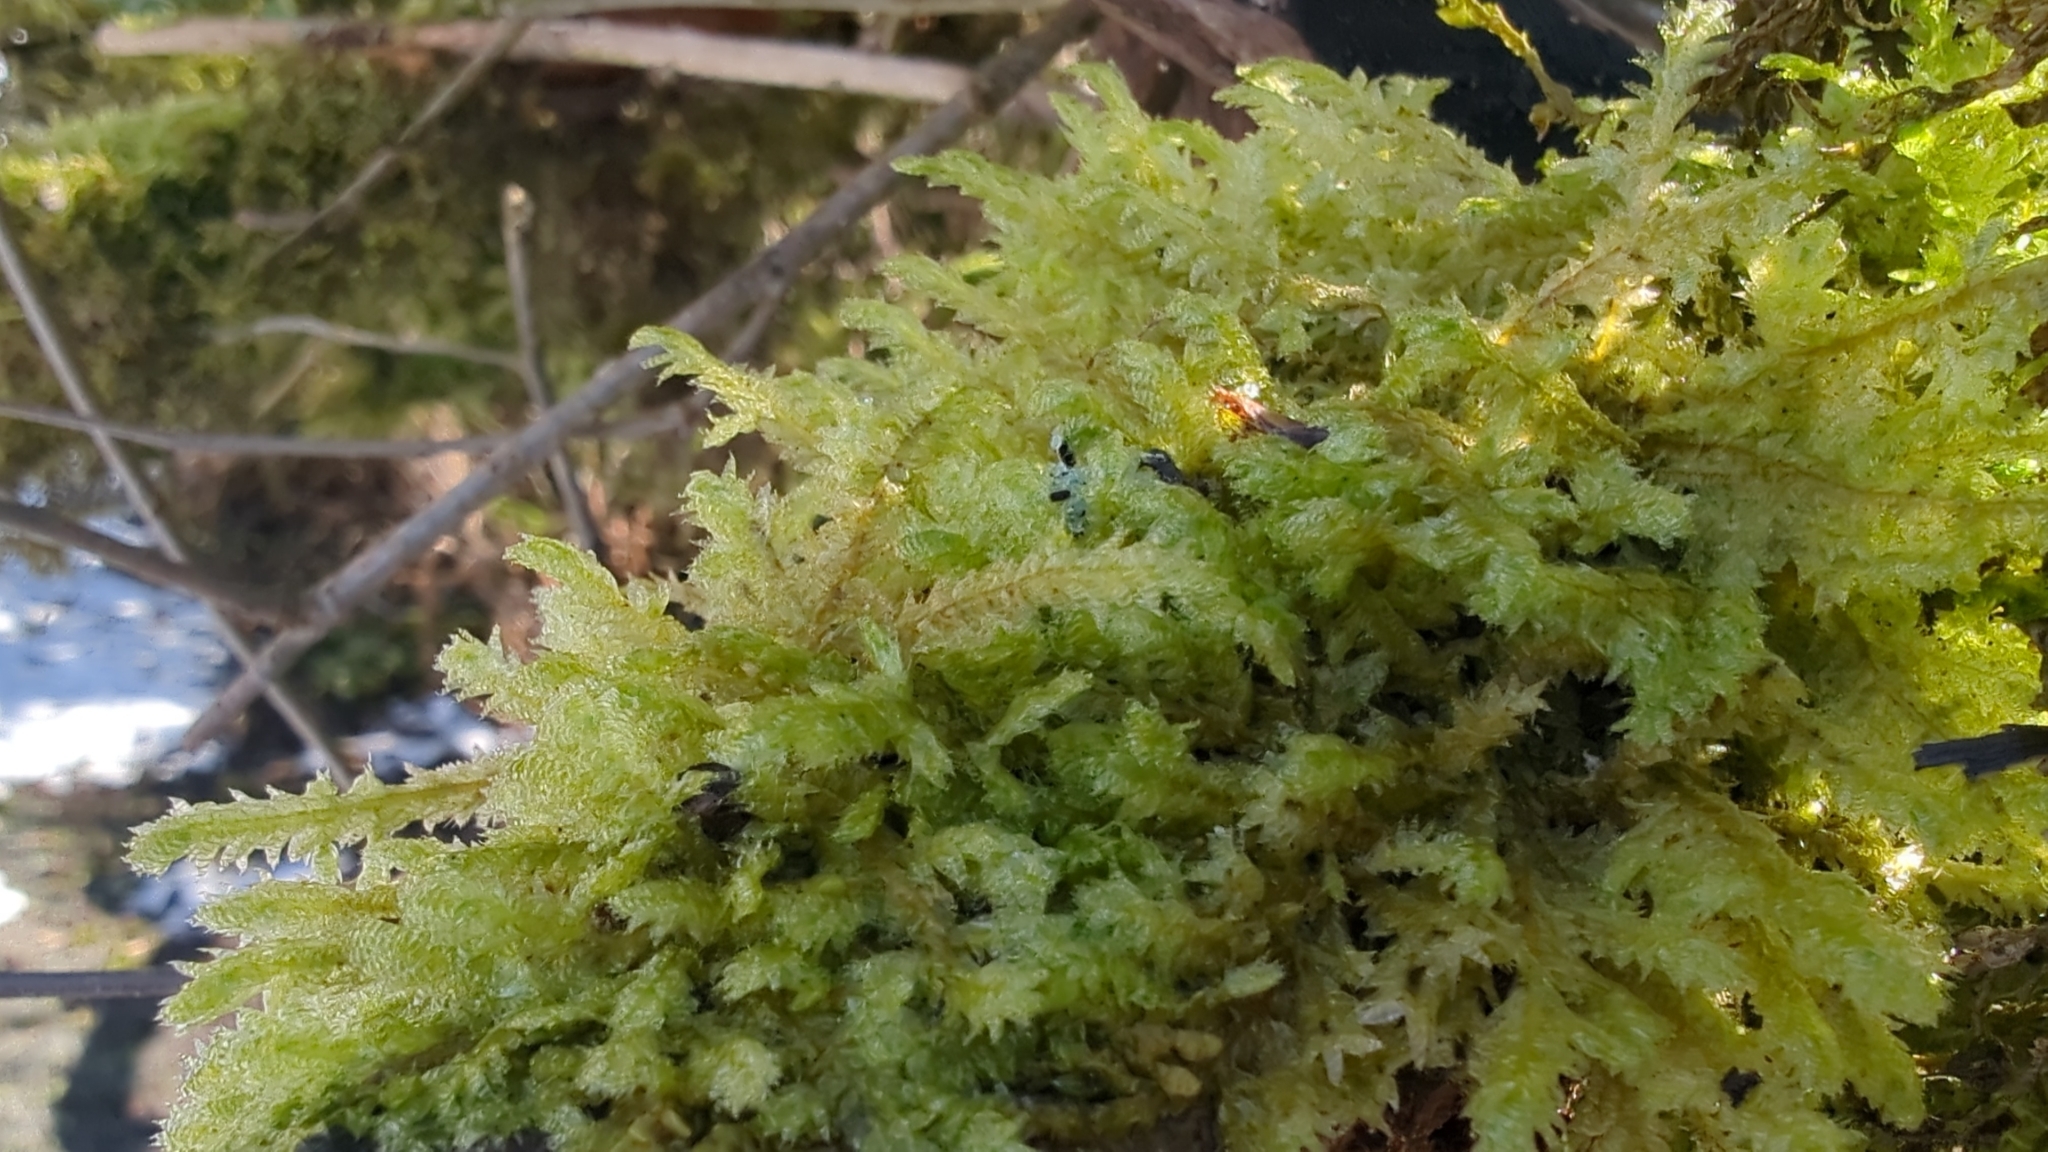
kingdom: Plantae
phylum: Bryophyta
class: Bryopsida
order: Hypnales
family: Neckeraceae
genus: Neckera
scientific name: Neckera douglasii
